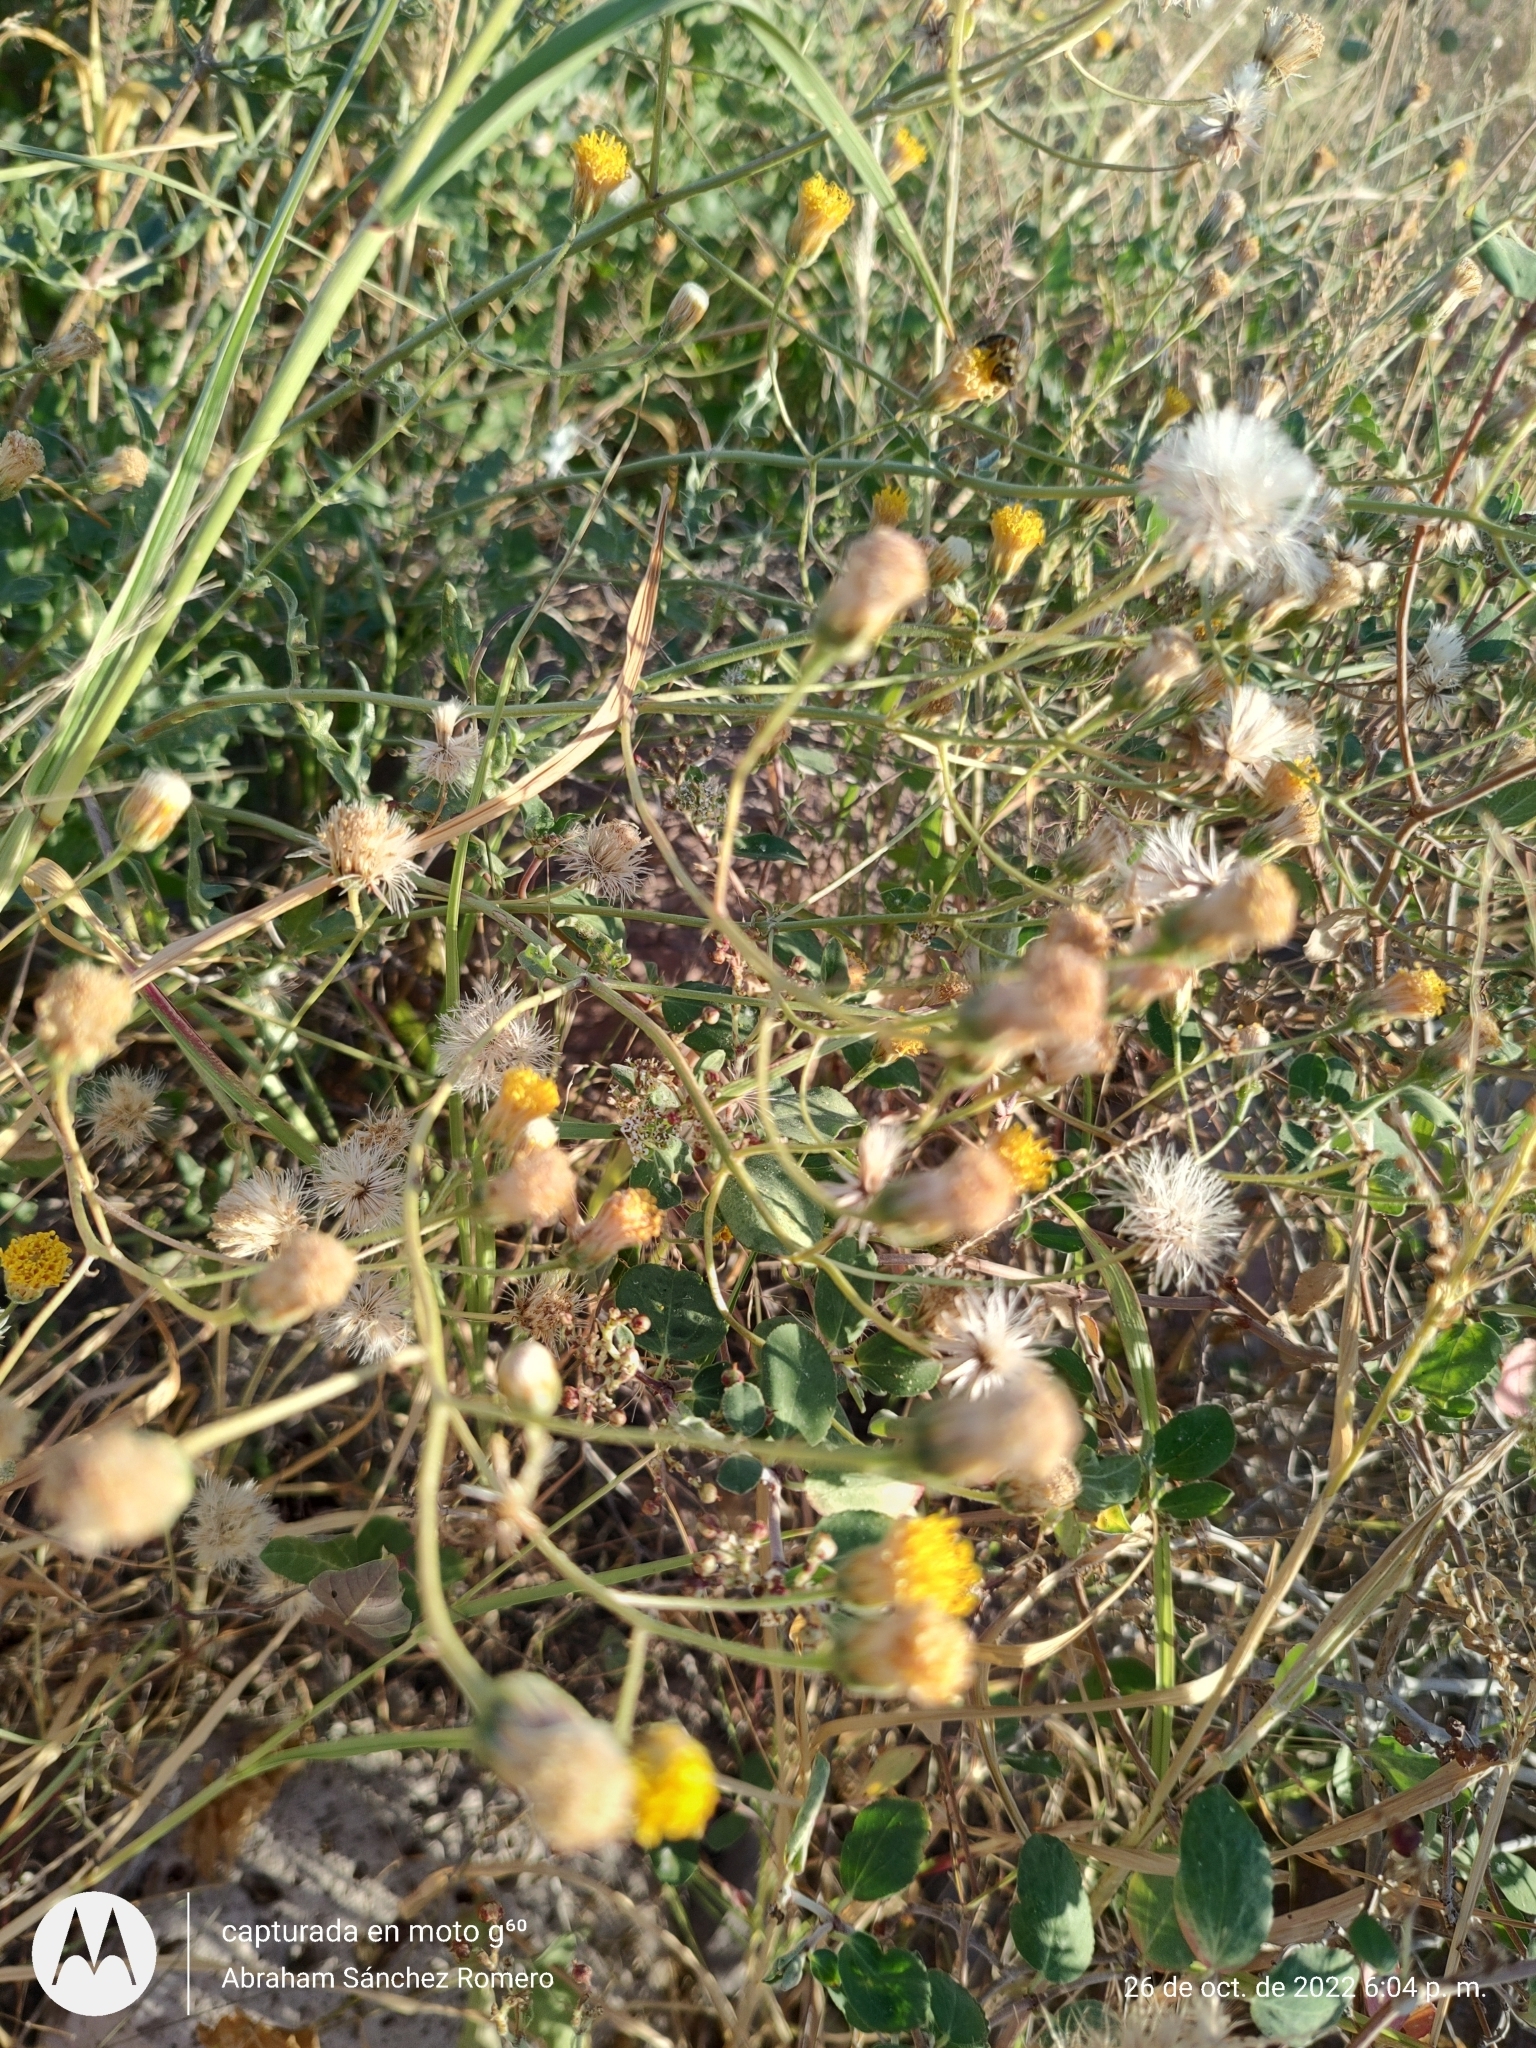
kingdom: Plantae
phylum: Tracheophyta
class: Magnoliopsida
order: Asterales
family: Asteraceae
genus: Bebbia
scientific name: Bebbia atriplicifolia
